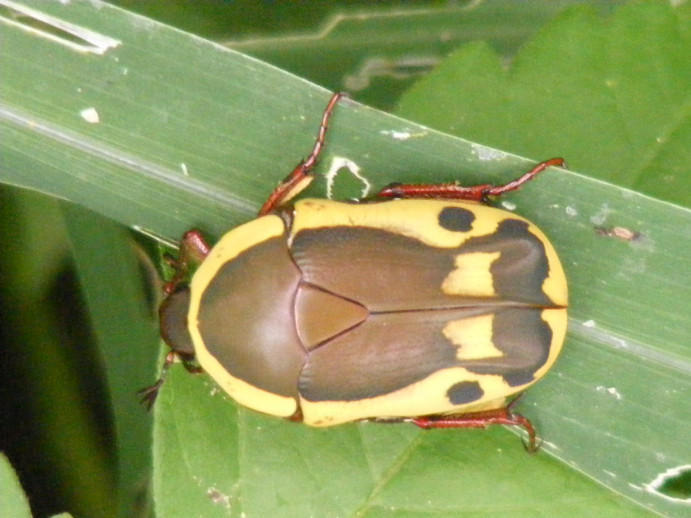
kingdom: Animalia
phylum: Arthropoda
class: Insecta
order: Coleoptera
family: Scarabaeidae
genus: Marmylida
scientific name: Marmylida impressa
